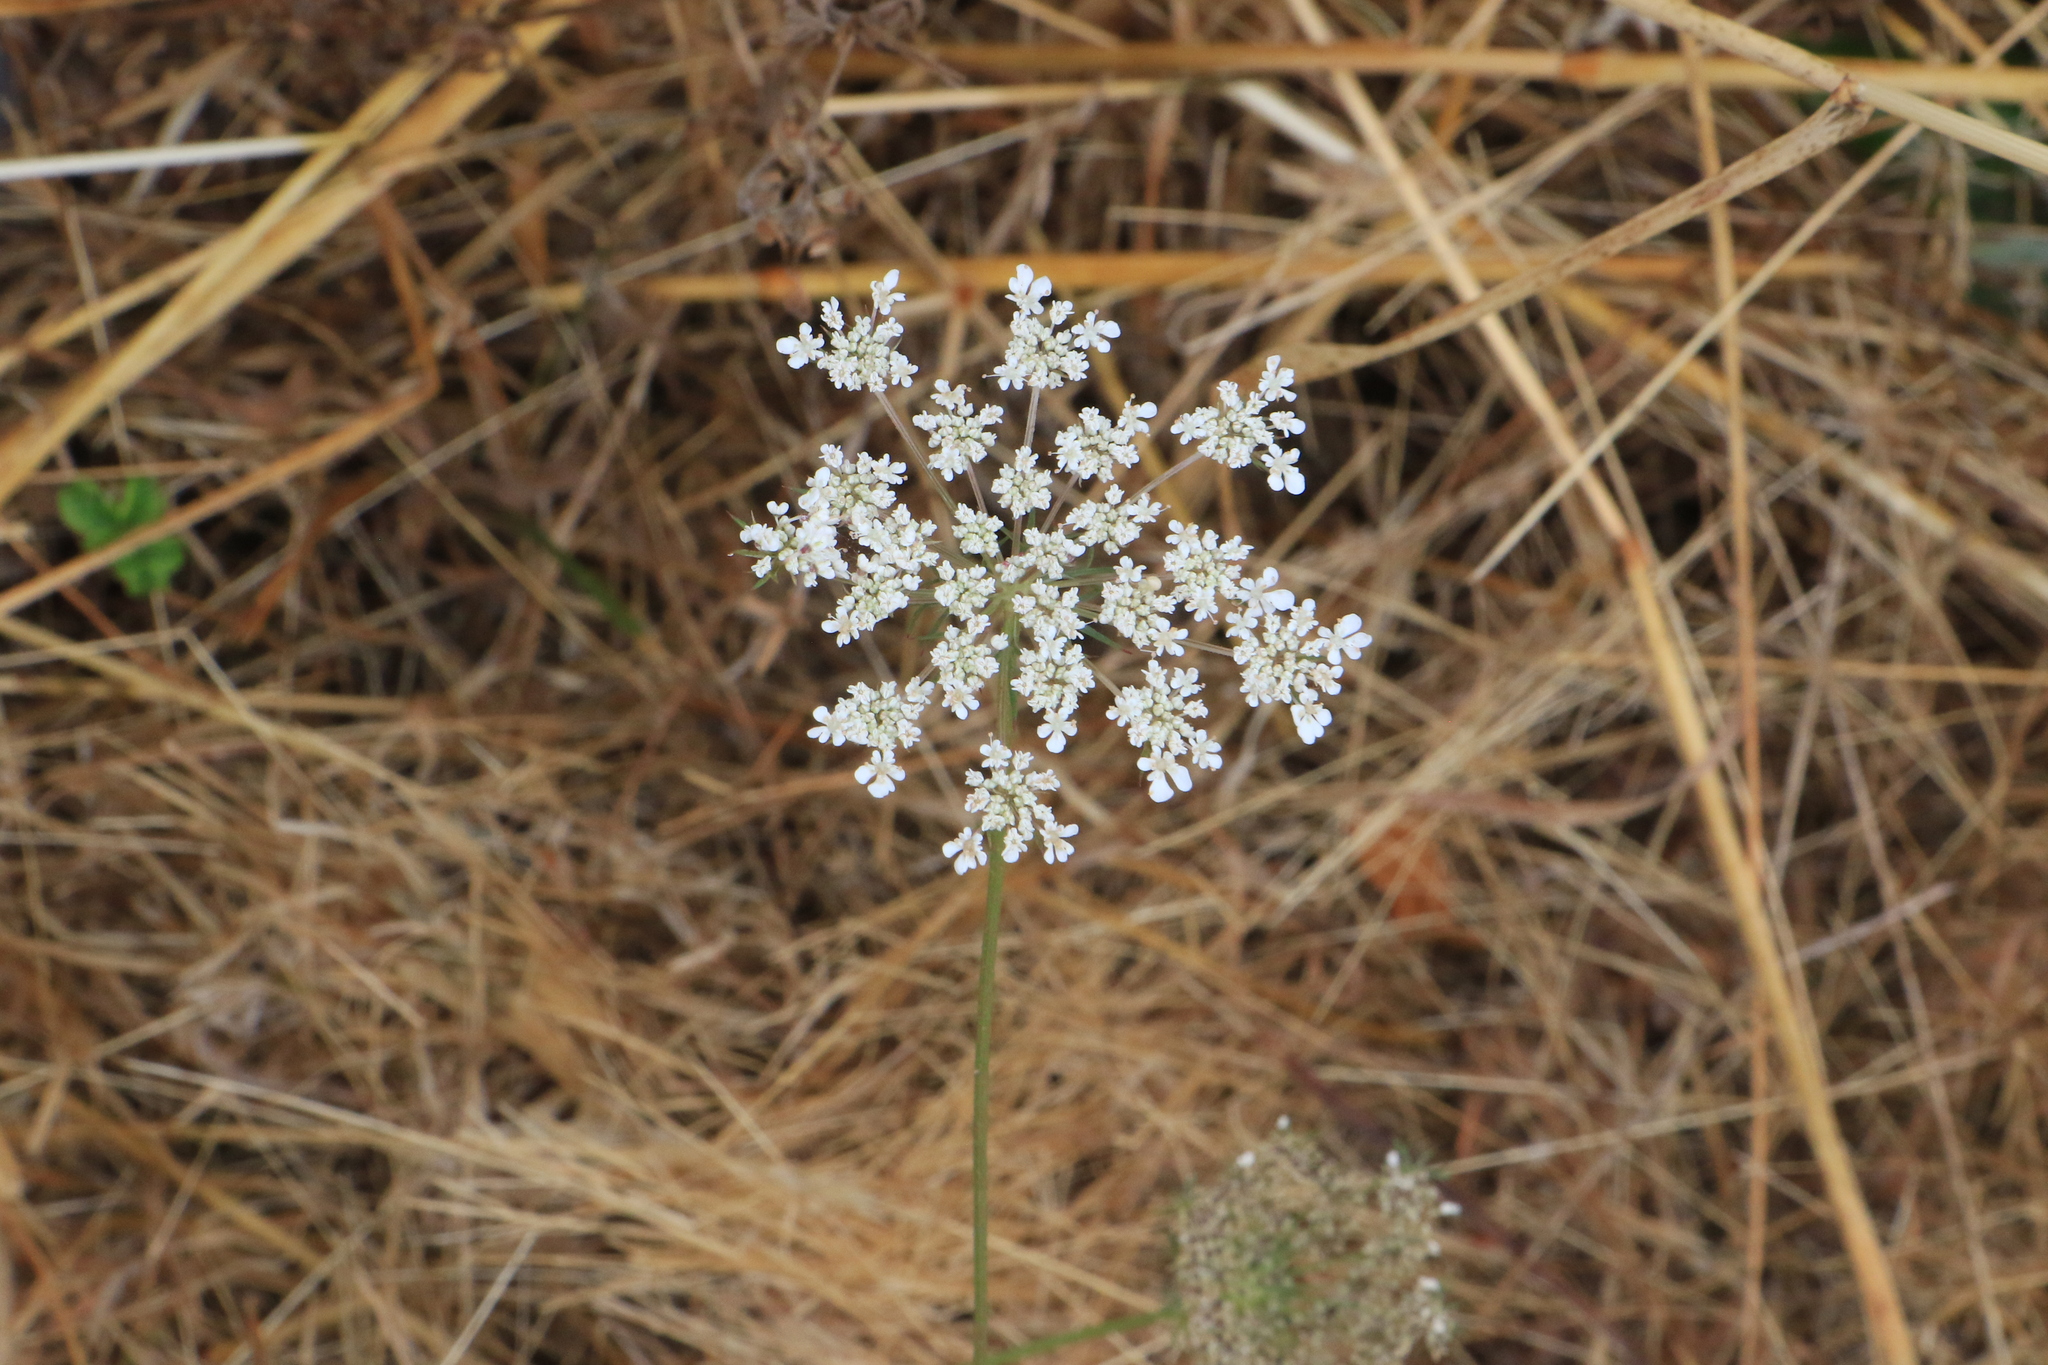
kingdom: Plantae
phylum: Tracheophyta
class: Magnoliopsida
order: Apiales
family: Apiaceae
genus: Daucus
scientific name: Daucus carota
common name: Wild carrot
